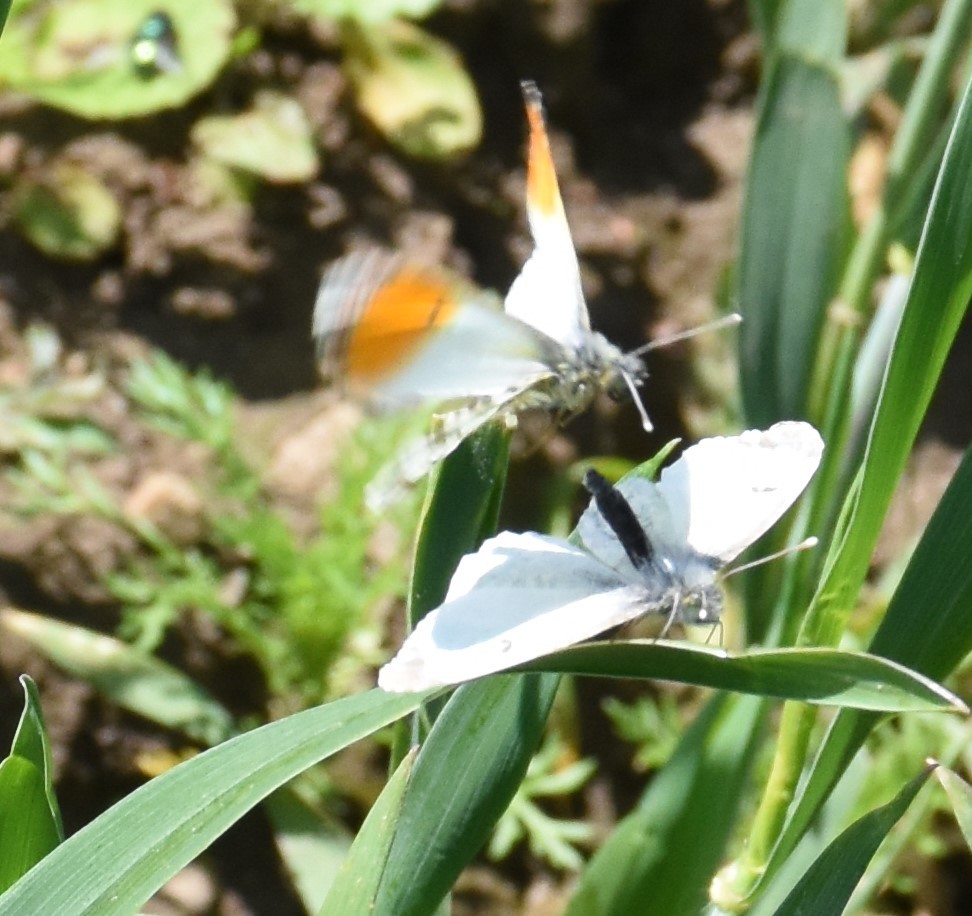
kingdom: Animalia
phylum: Arthropoda
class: Insecta
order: Lepidoptera
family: Pieridae
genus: Anthocharis
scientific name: Anthocharis cardamines
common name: Orange-tip
